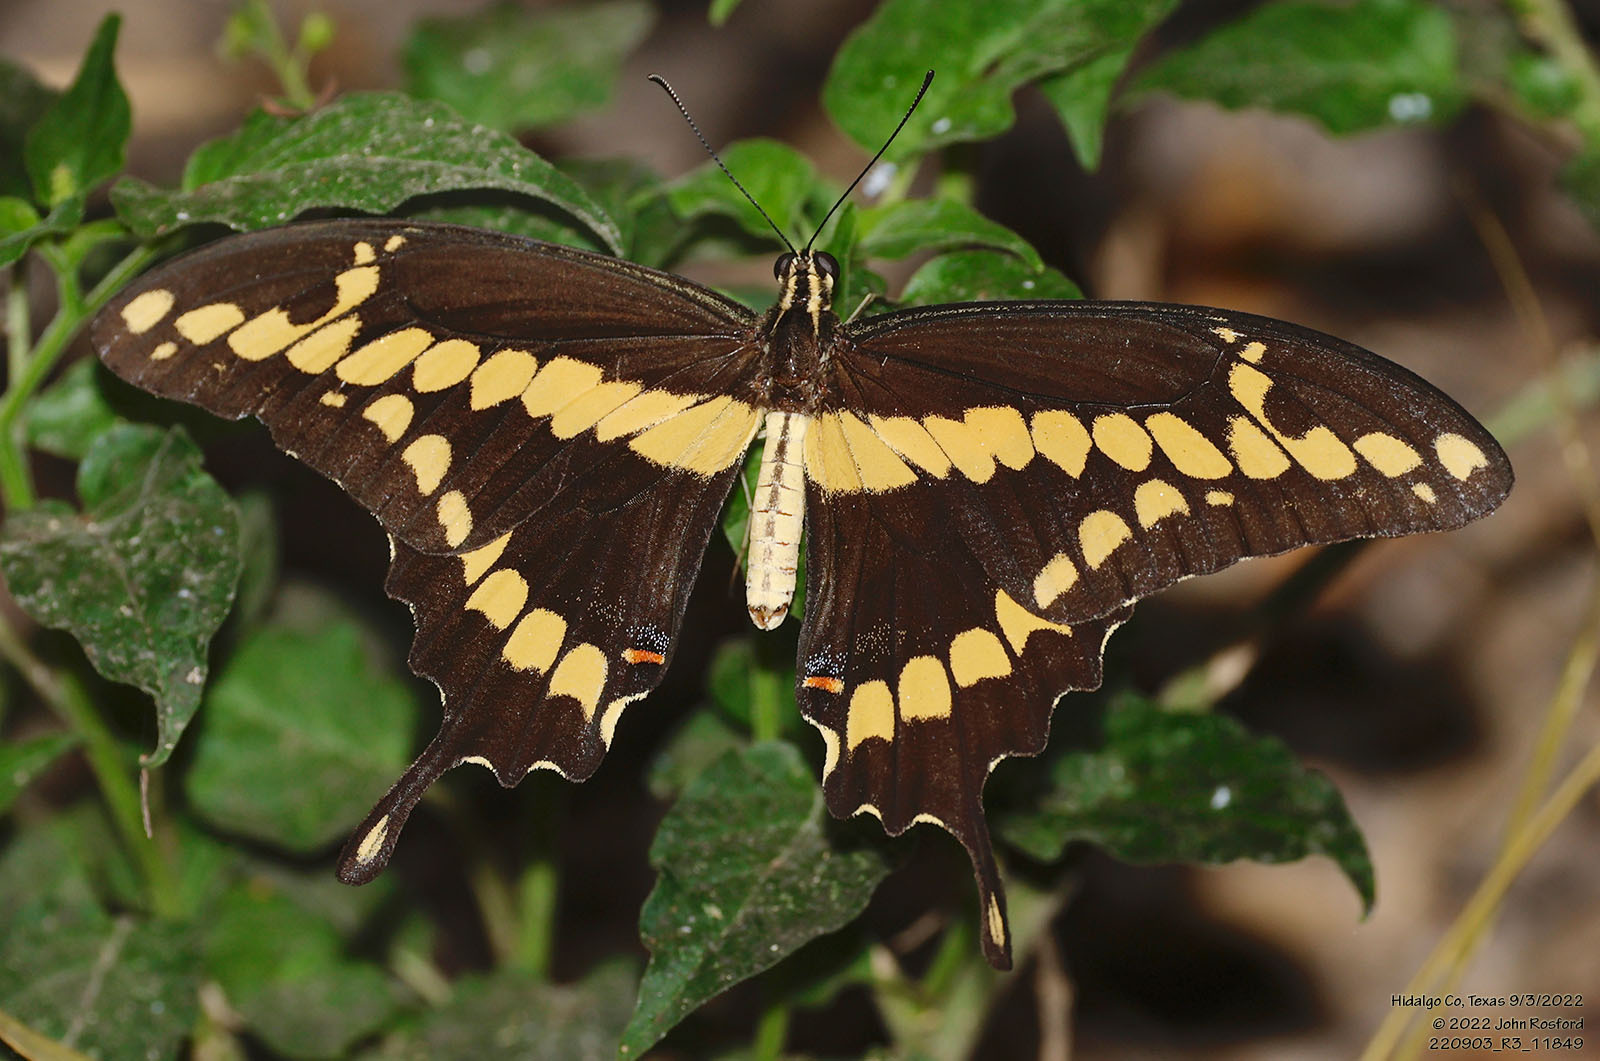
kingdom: Animalia
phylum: Arthropoda
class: Insecta
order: Lepidoptera
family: Papilionidae
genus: Papilio
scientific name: Papilio rumiko
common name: Western giant swallowtail
